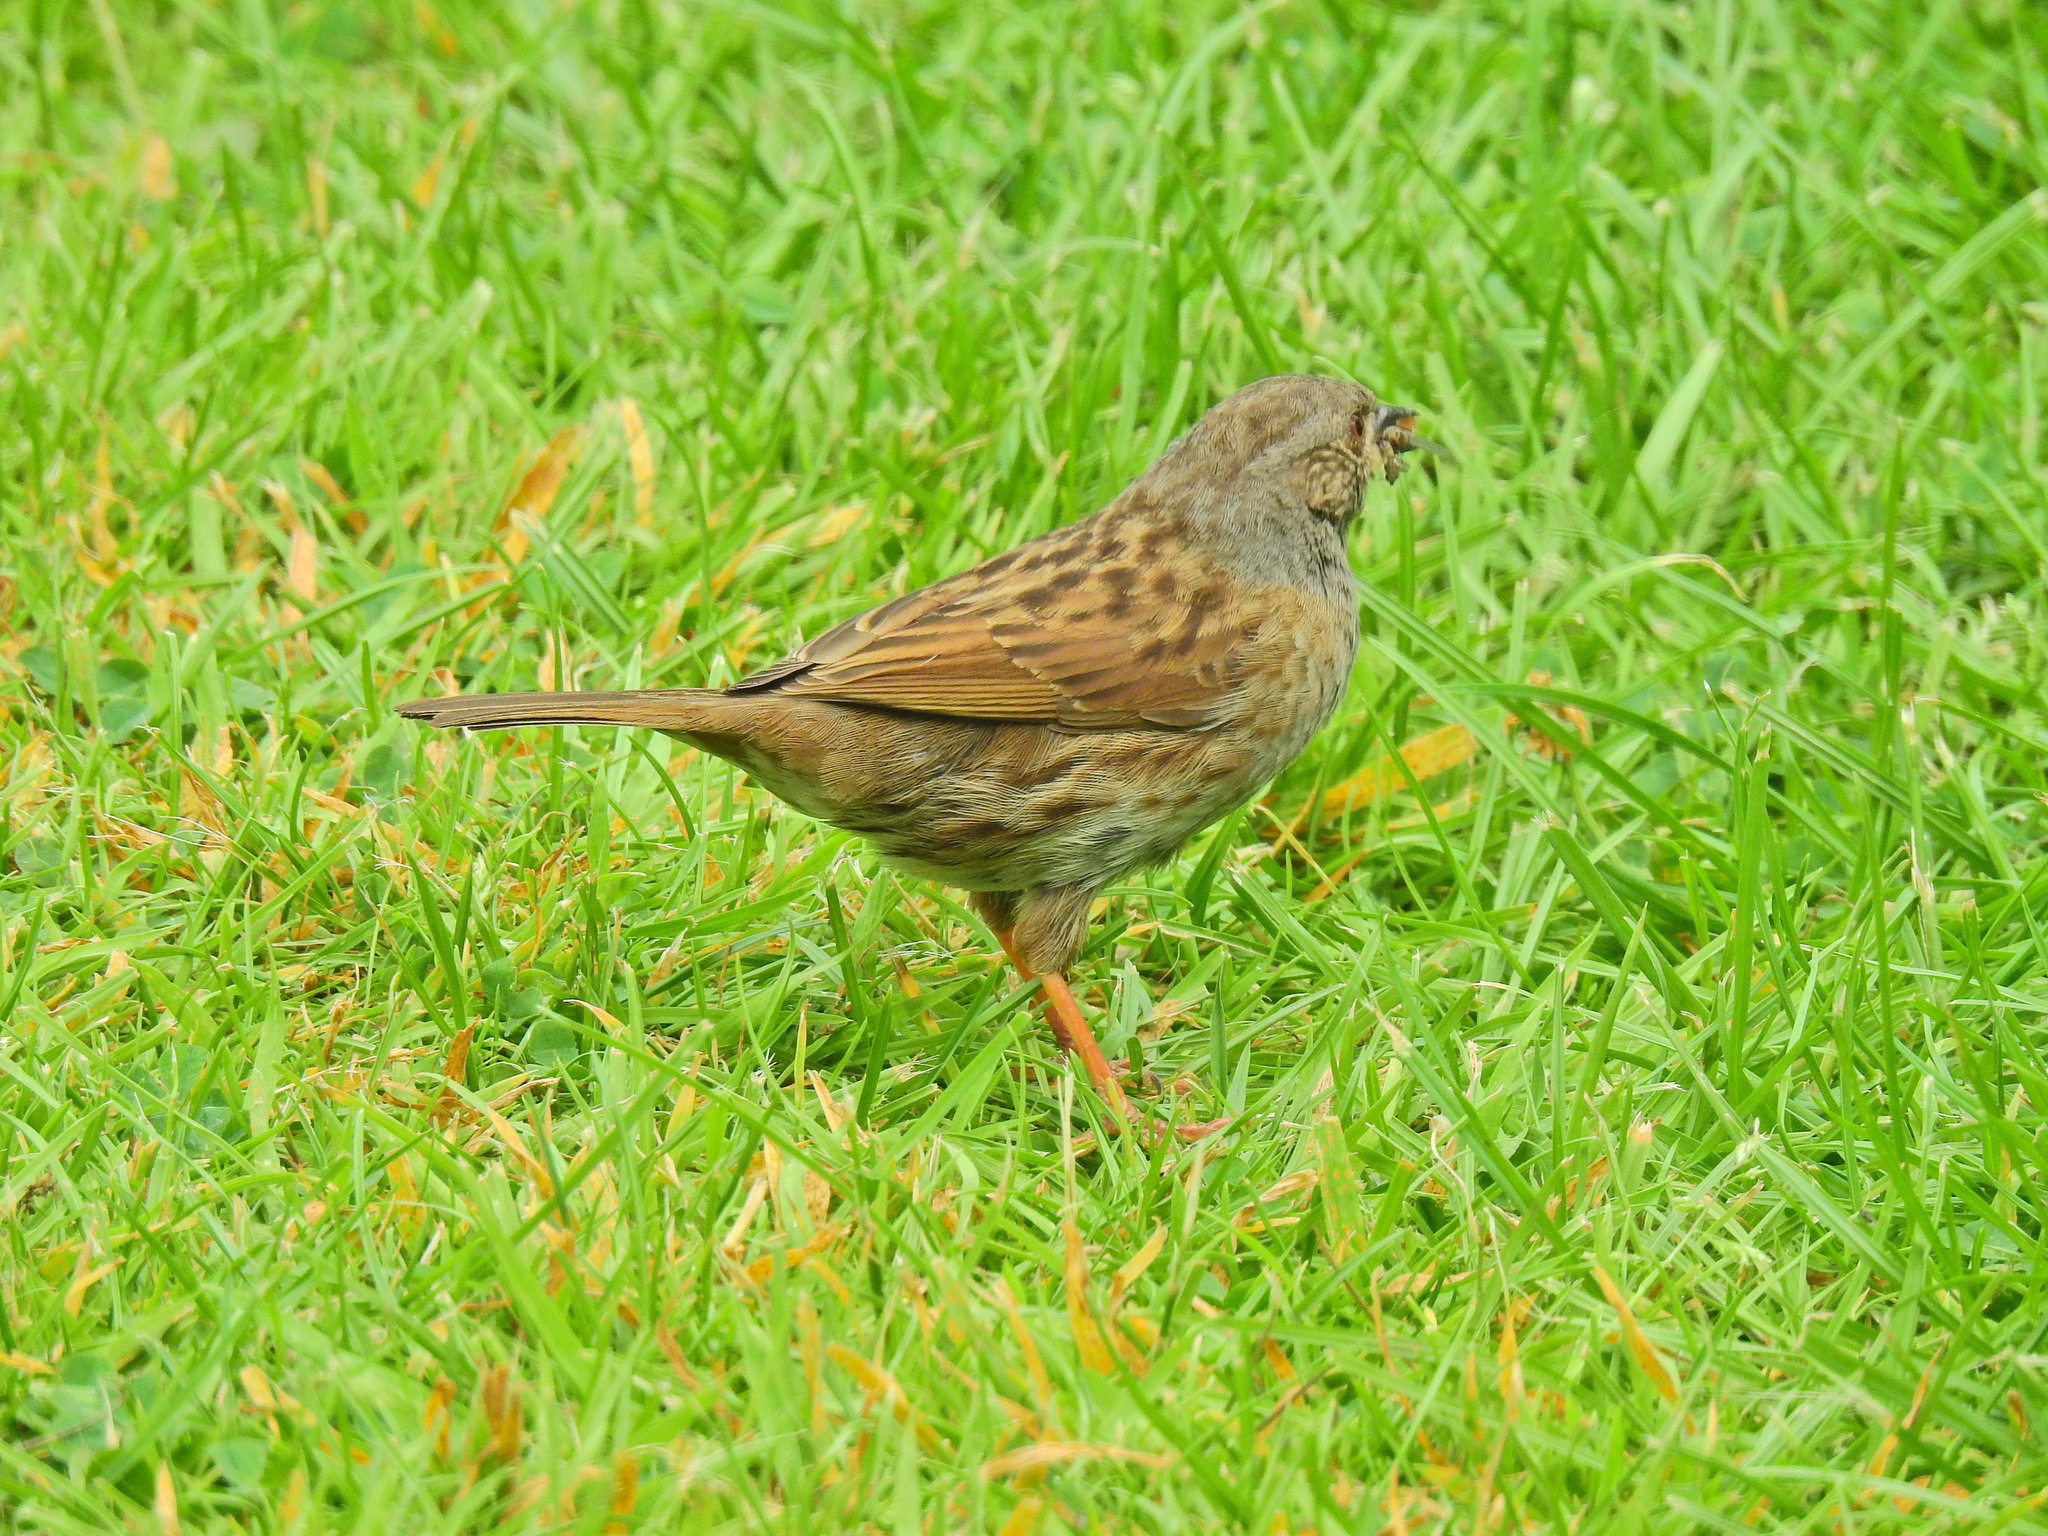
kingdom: Animalia
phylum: Chordata
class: Aves
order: Passeriformes
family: Prunellidae
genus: Prunella
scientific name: Prunella modularis
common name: Dunnock
